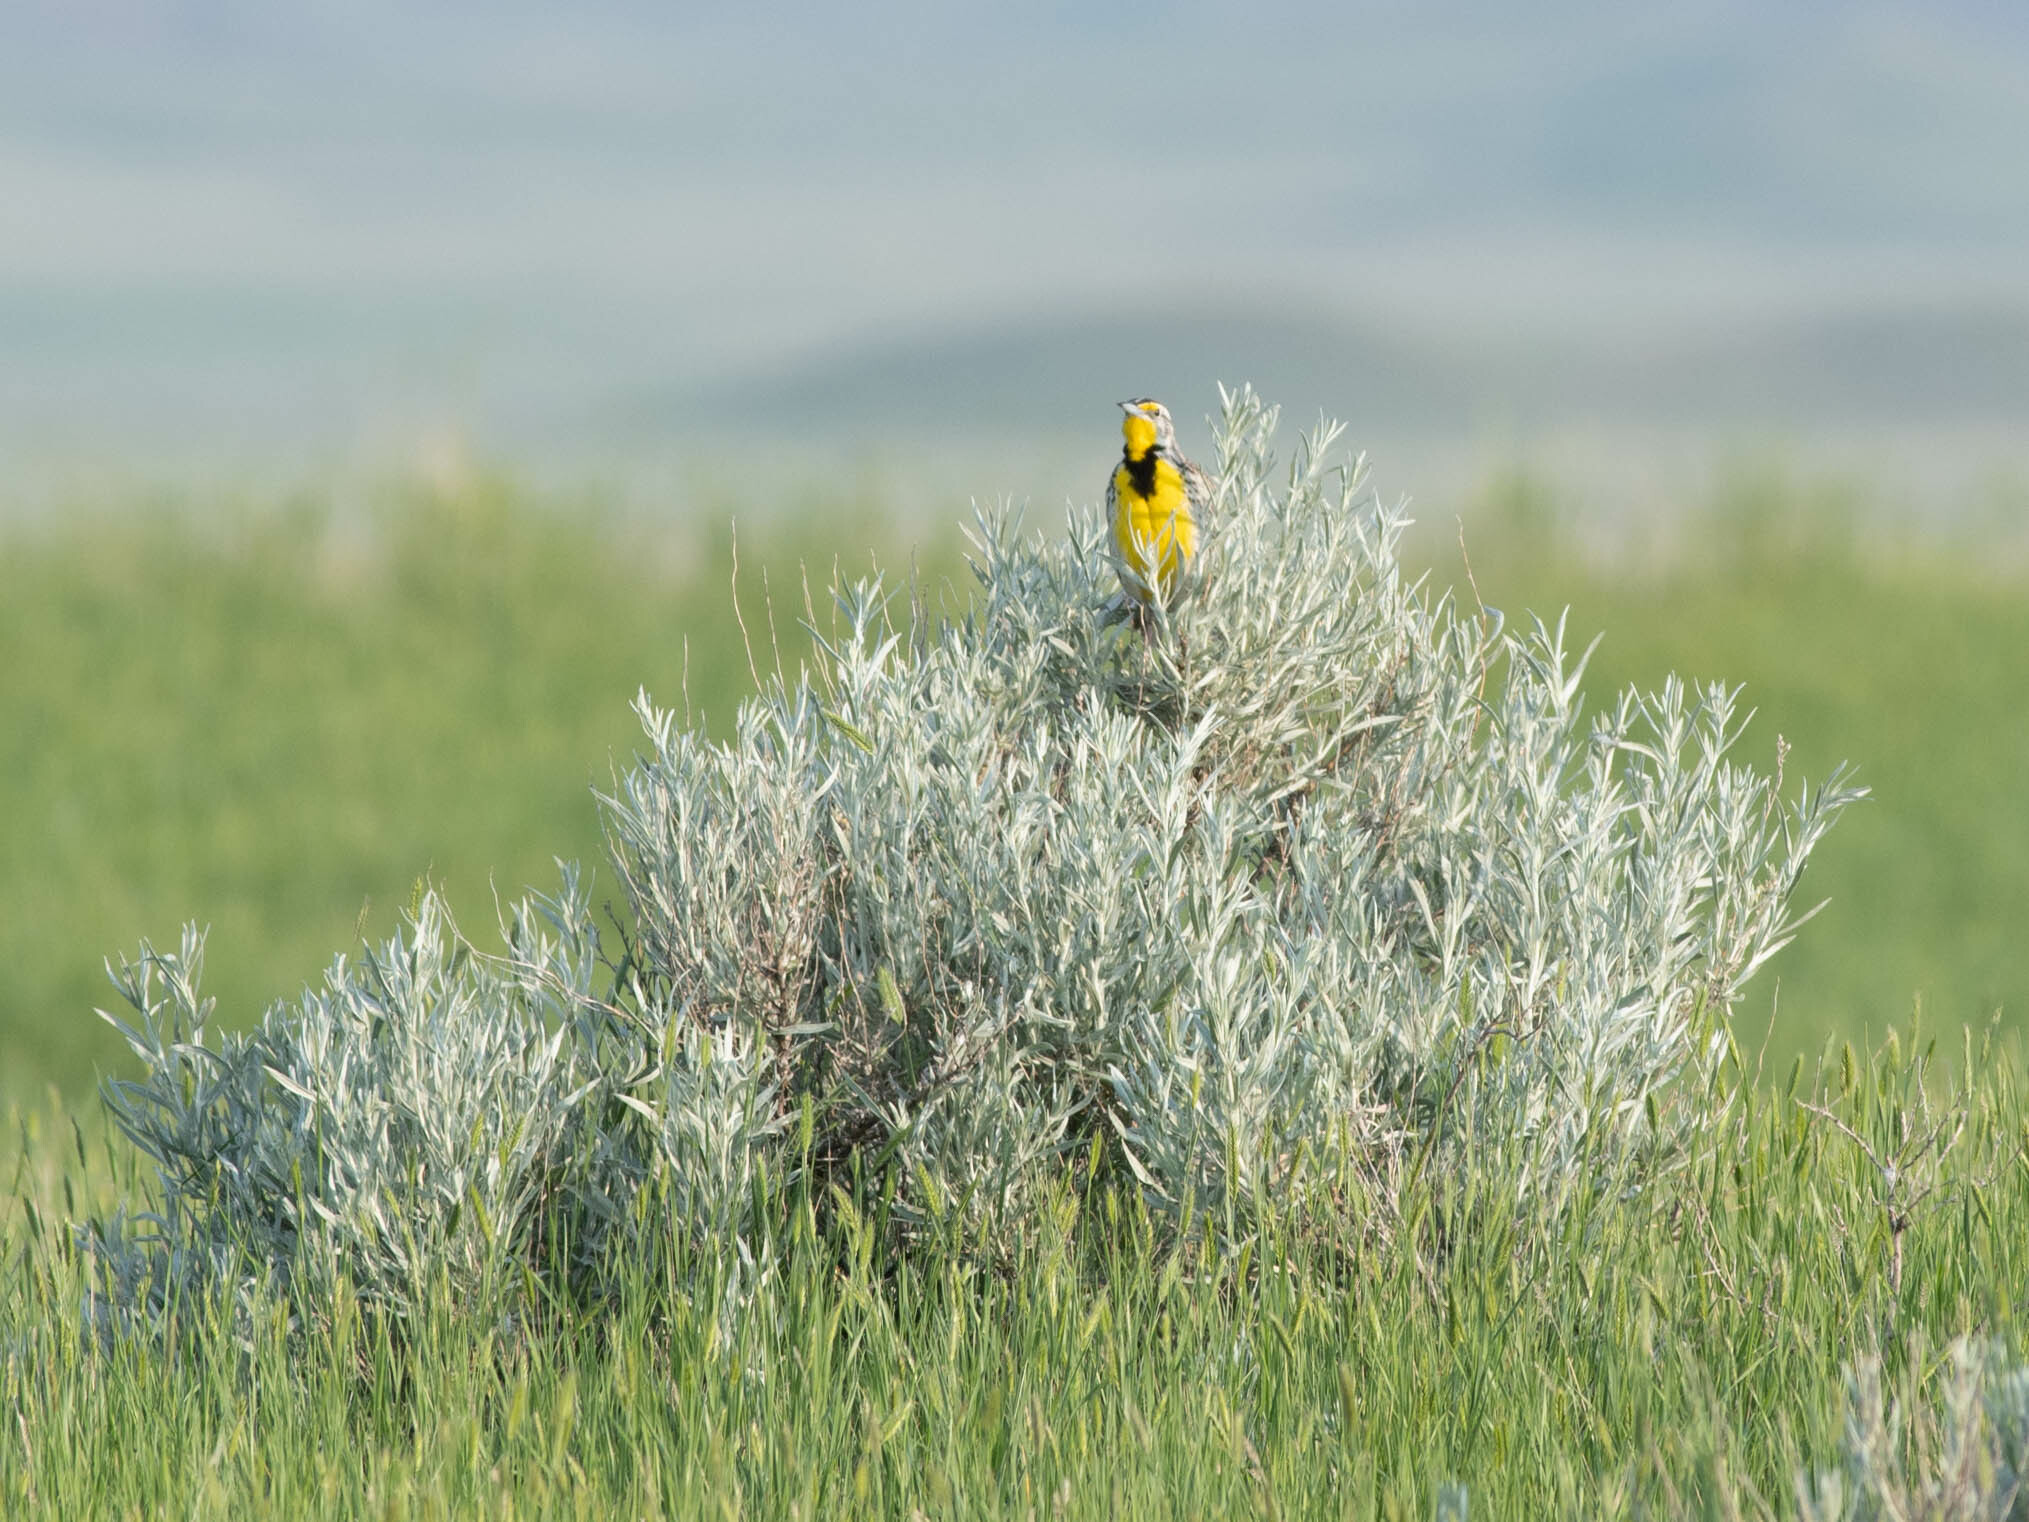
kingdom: Animalia
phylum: Chordata
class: Aves
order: Passeriformes
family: Icteridae
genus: Sturnella
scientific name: Sturnella neglecta
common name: Western meadowlark
